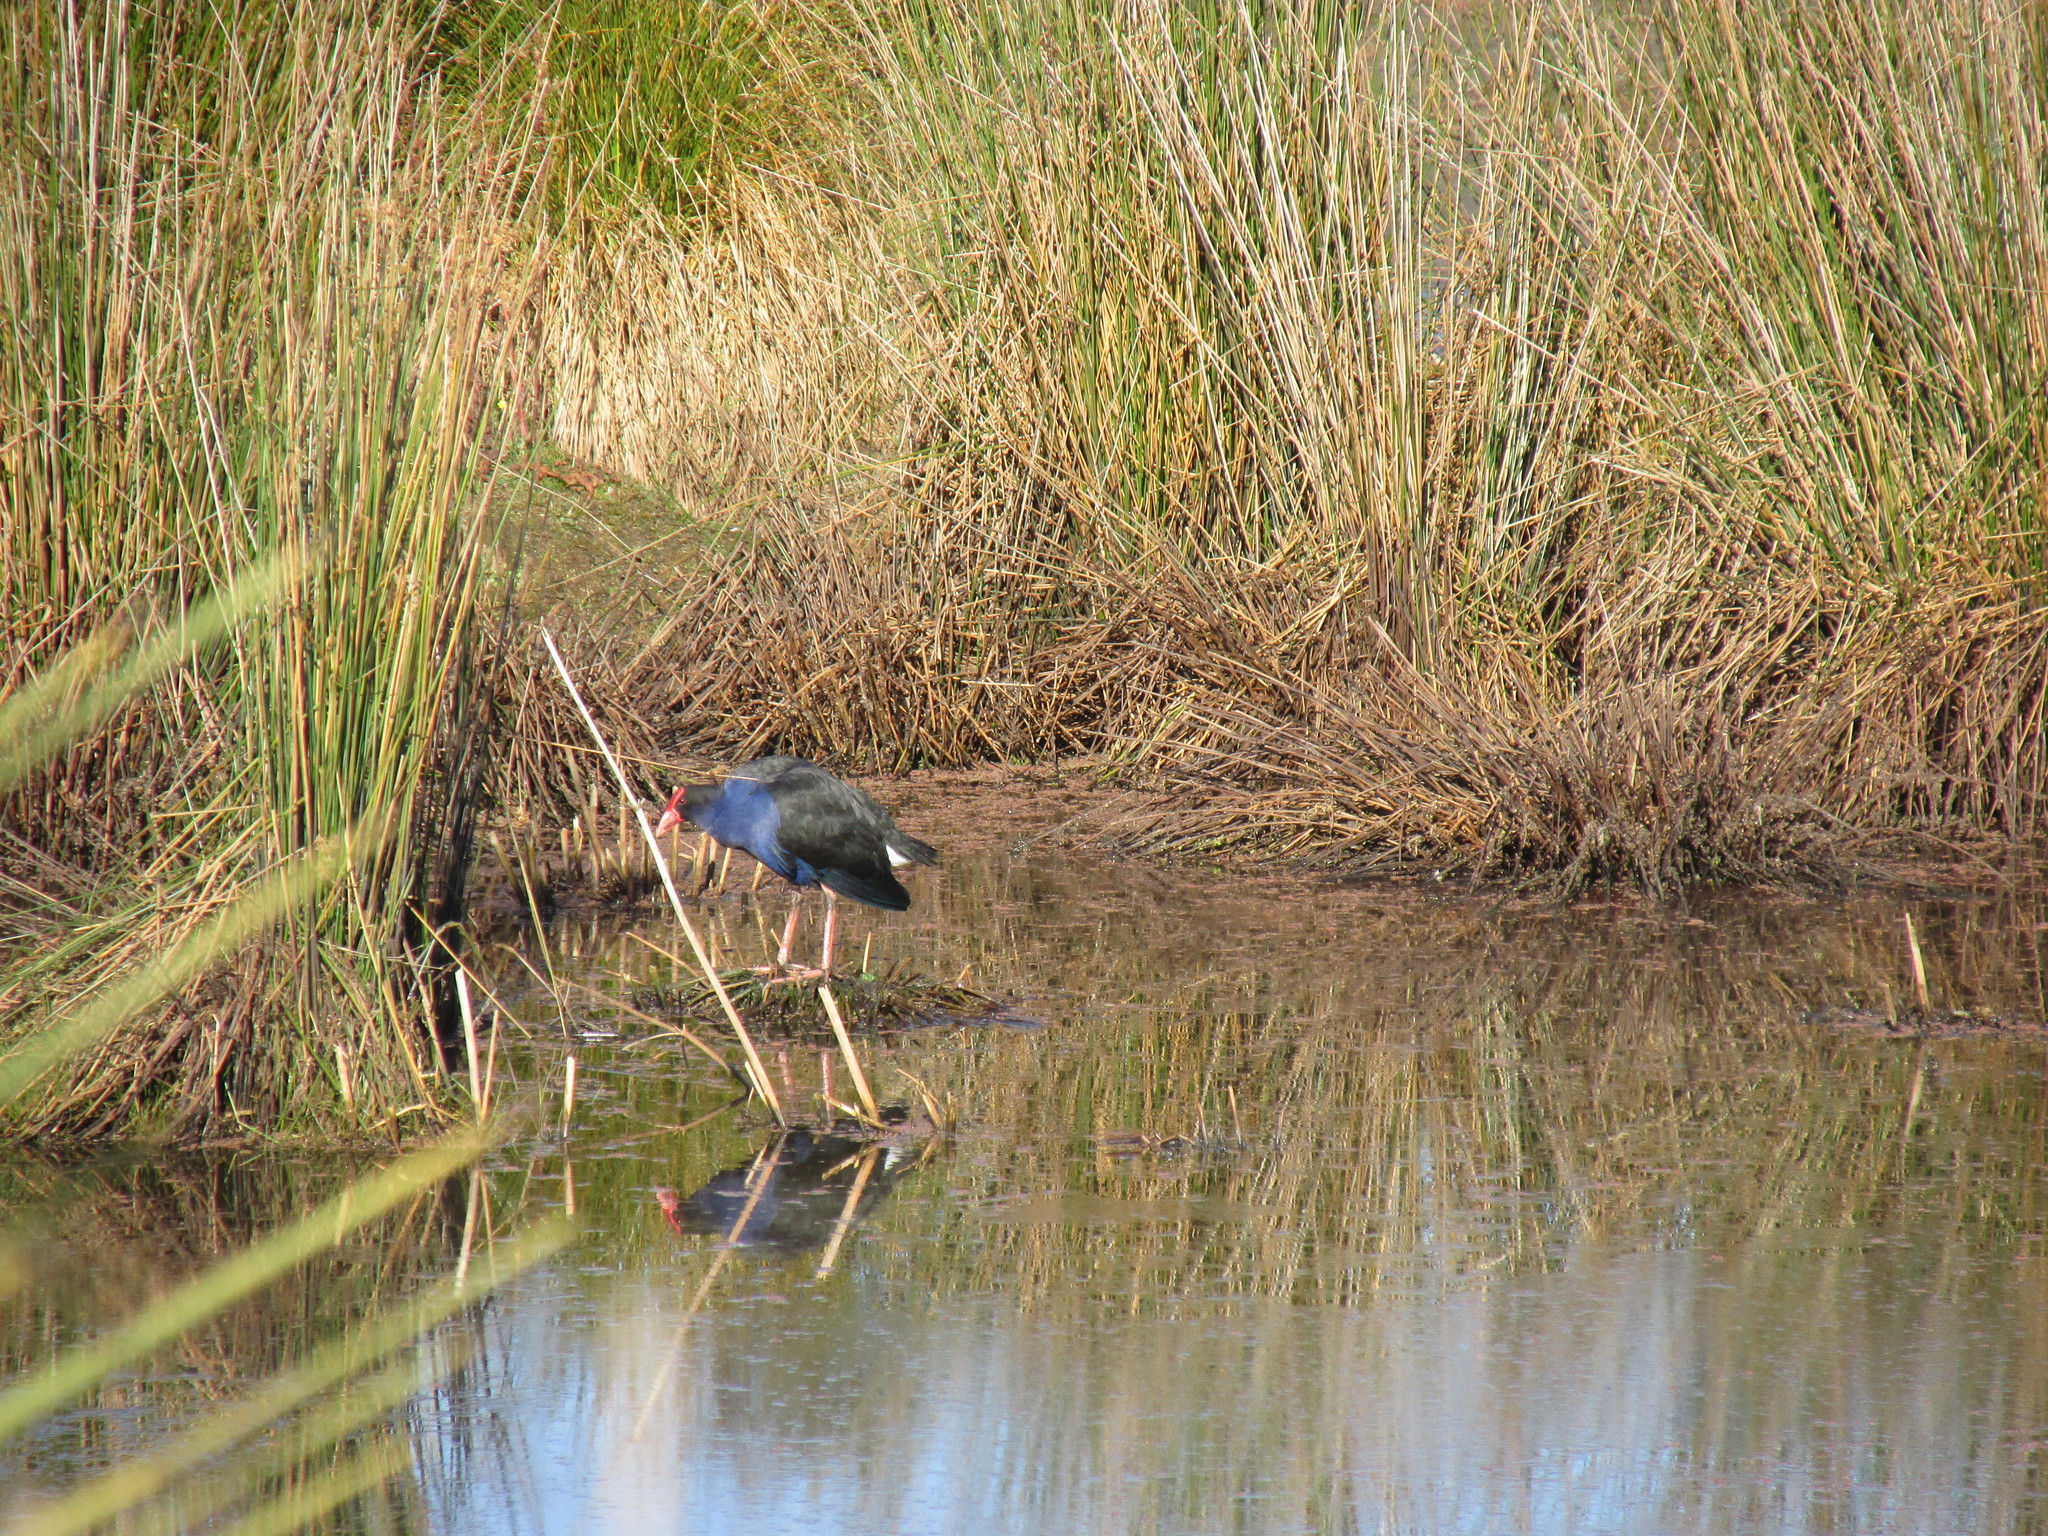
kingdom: Animalia
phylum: Chordata
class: Aves
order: Gruiformes
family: Rallidae
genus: Porphyrio
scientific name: Porphyrio melanotus
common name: Australasian swamphen
